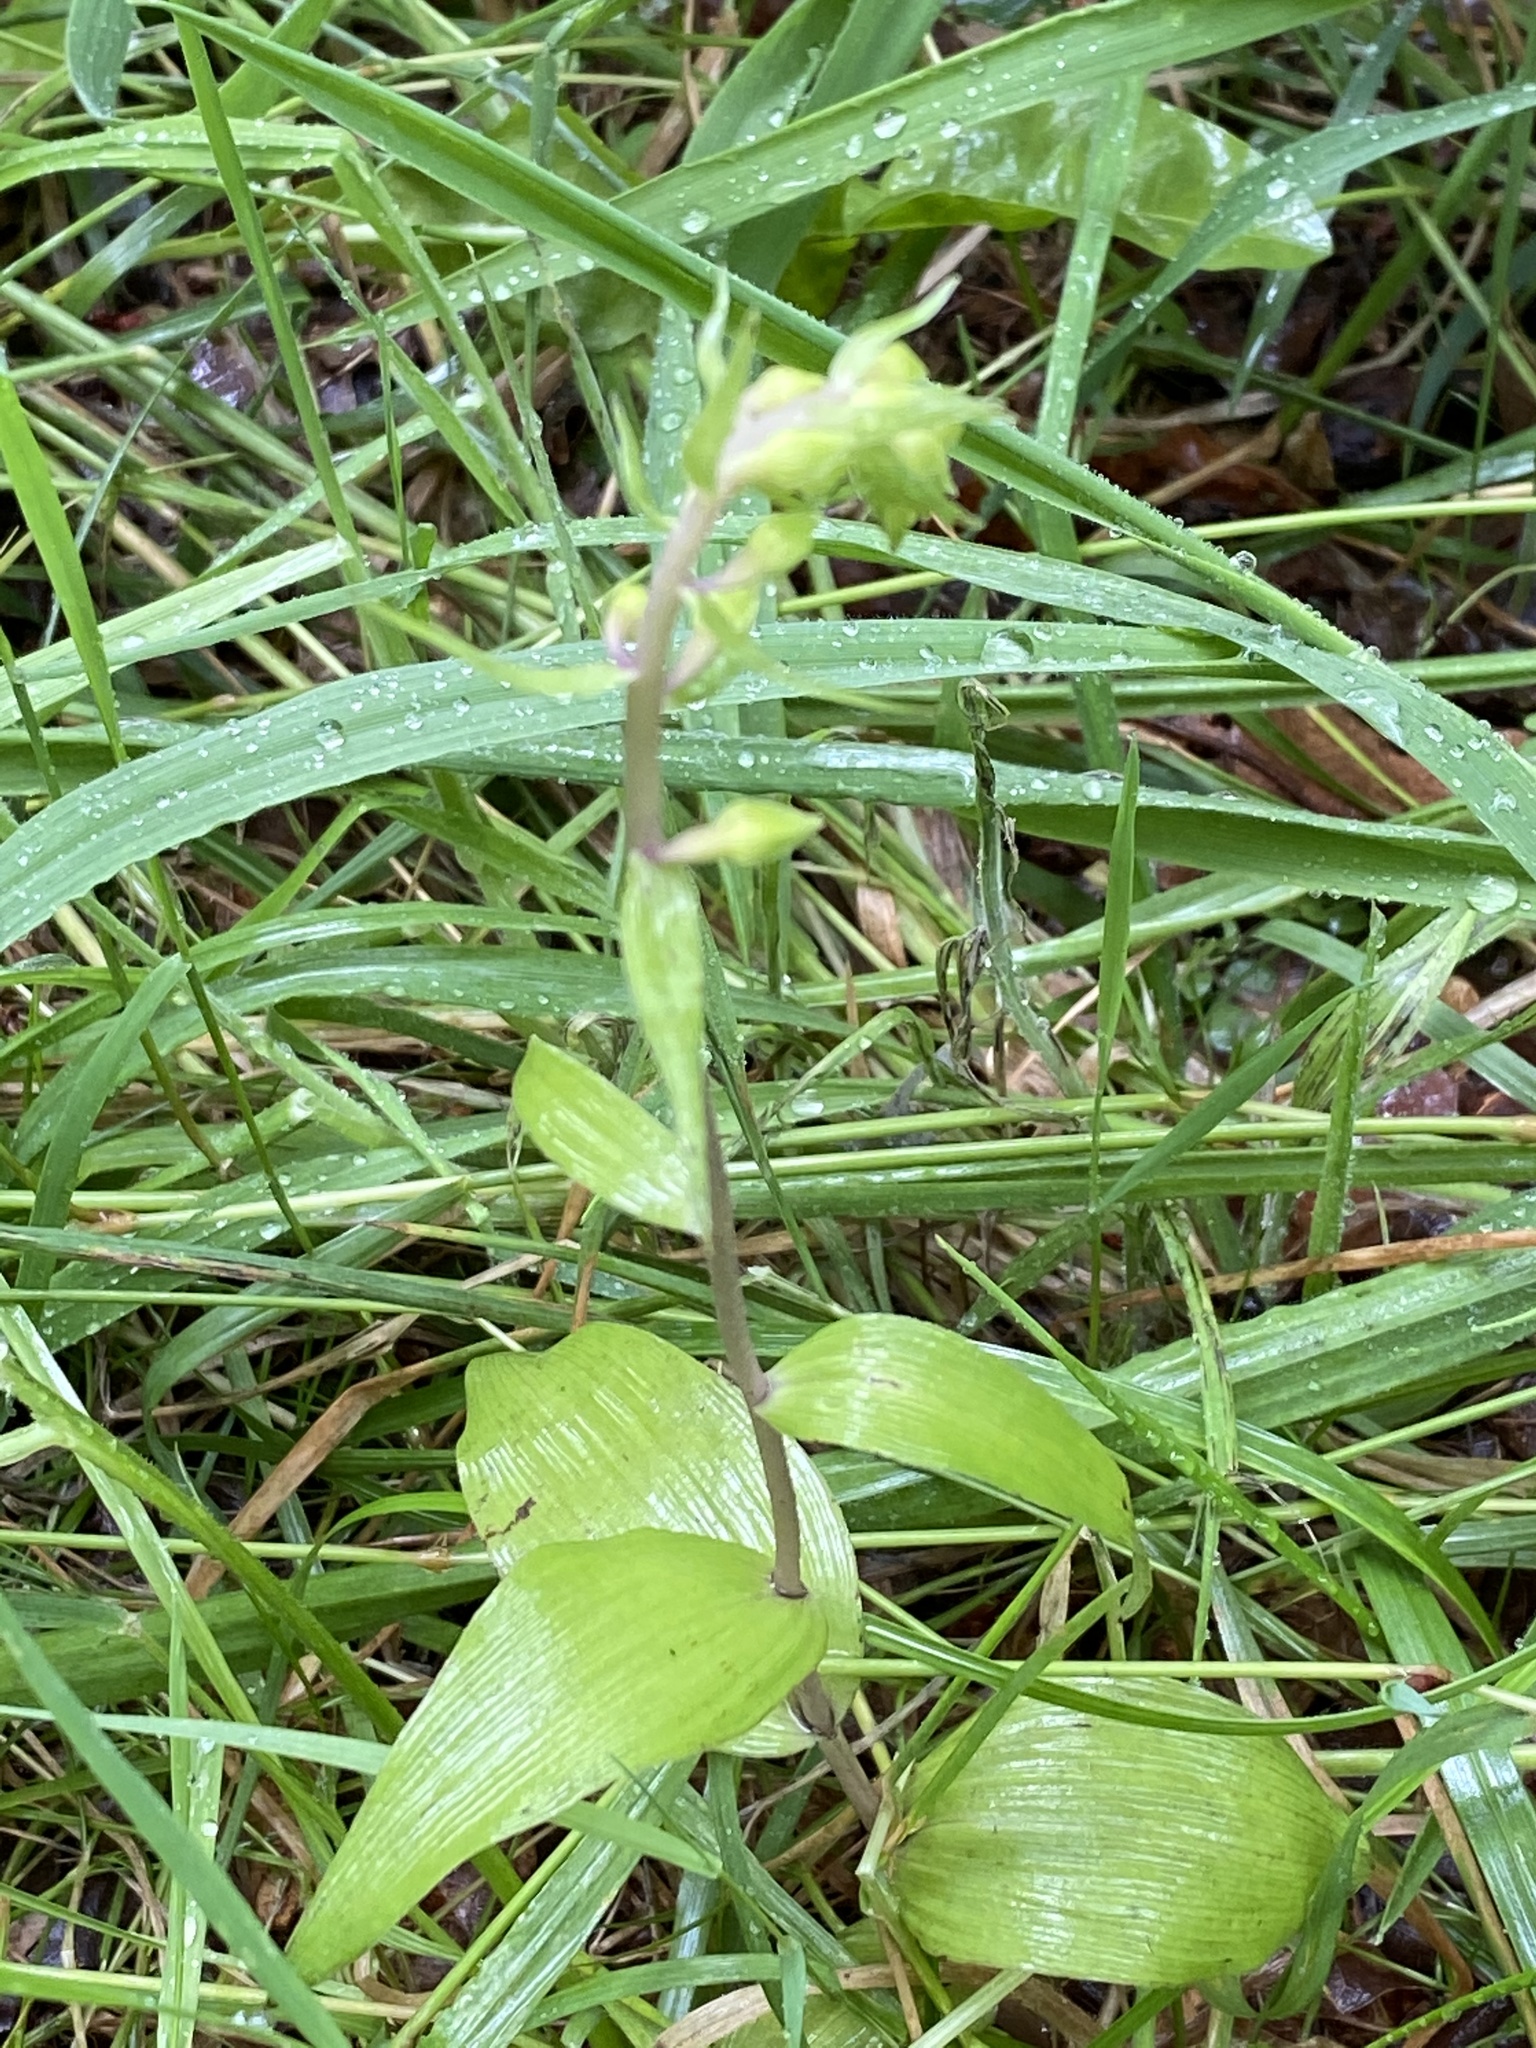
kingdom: Plantae
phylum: Tracheophyta
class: Liliopsida
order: Asparagales
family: Orchidaceae
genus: Epipactis
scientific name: Epipactis helleborine
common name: Broad-leaved helleborine
